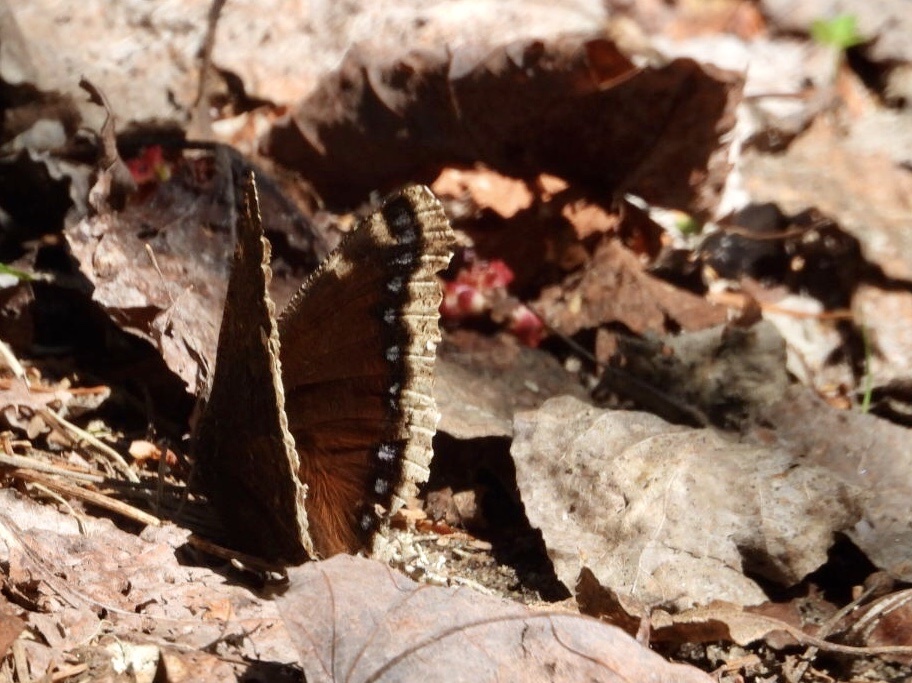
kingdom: Animalia
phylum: Arthropoda
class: Insecta
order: Lepidoptera
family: Nymphalidae
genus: Nymphalis
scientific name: Nymphalis antiopa
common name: Camberwell beauty
